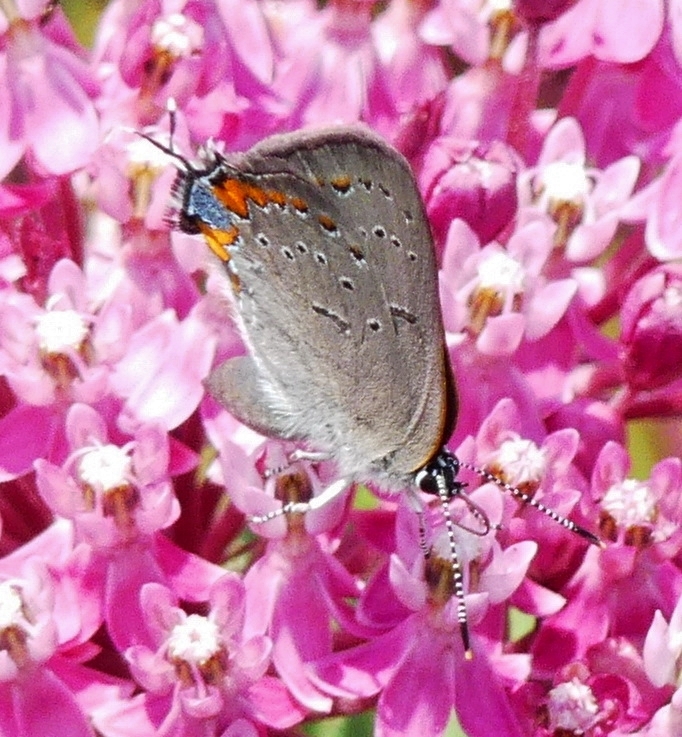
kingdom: Animalia
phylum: Arthropoda
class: Insecta
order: Lepidoptera
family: Lycaenidae
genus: Strymon
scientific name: Strymon acadica
